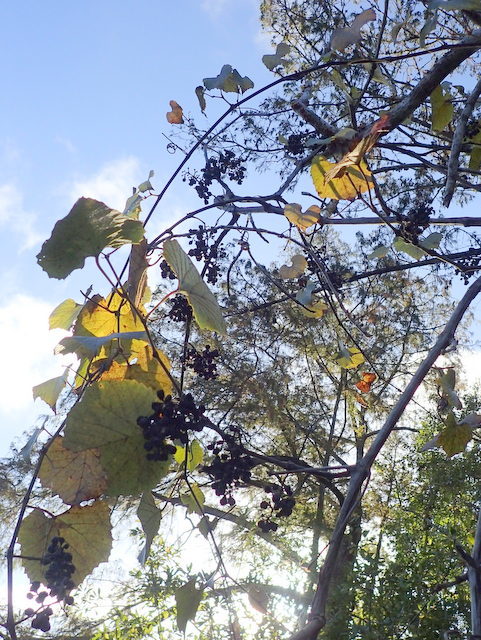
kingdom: Plantae
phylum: Tracheophyta
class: Magnoliopsida
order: Vitales
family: Vitaceae
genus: Vitis
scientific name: Vitis vulpina
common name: Frost grape
